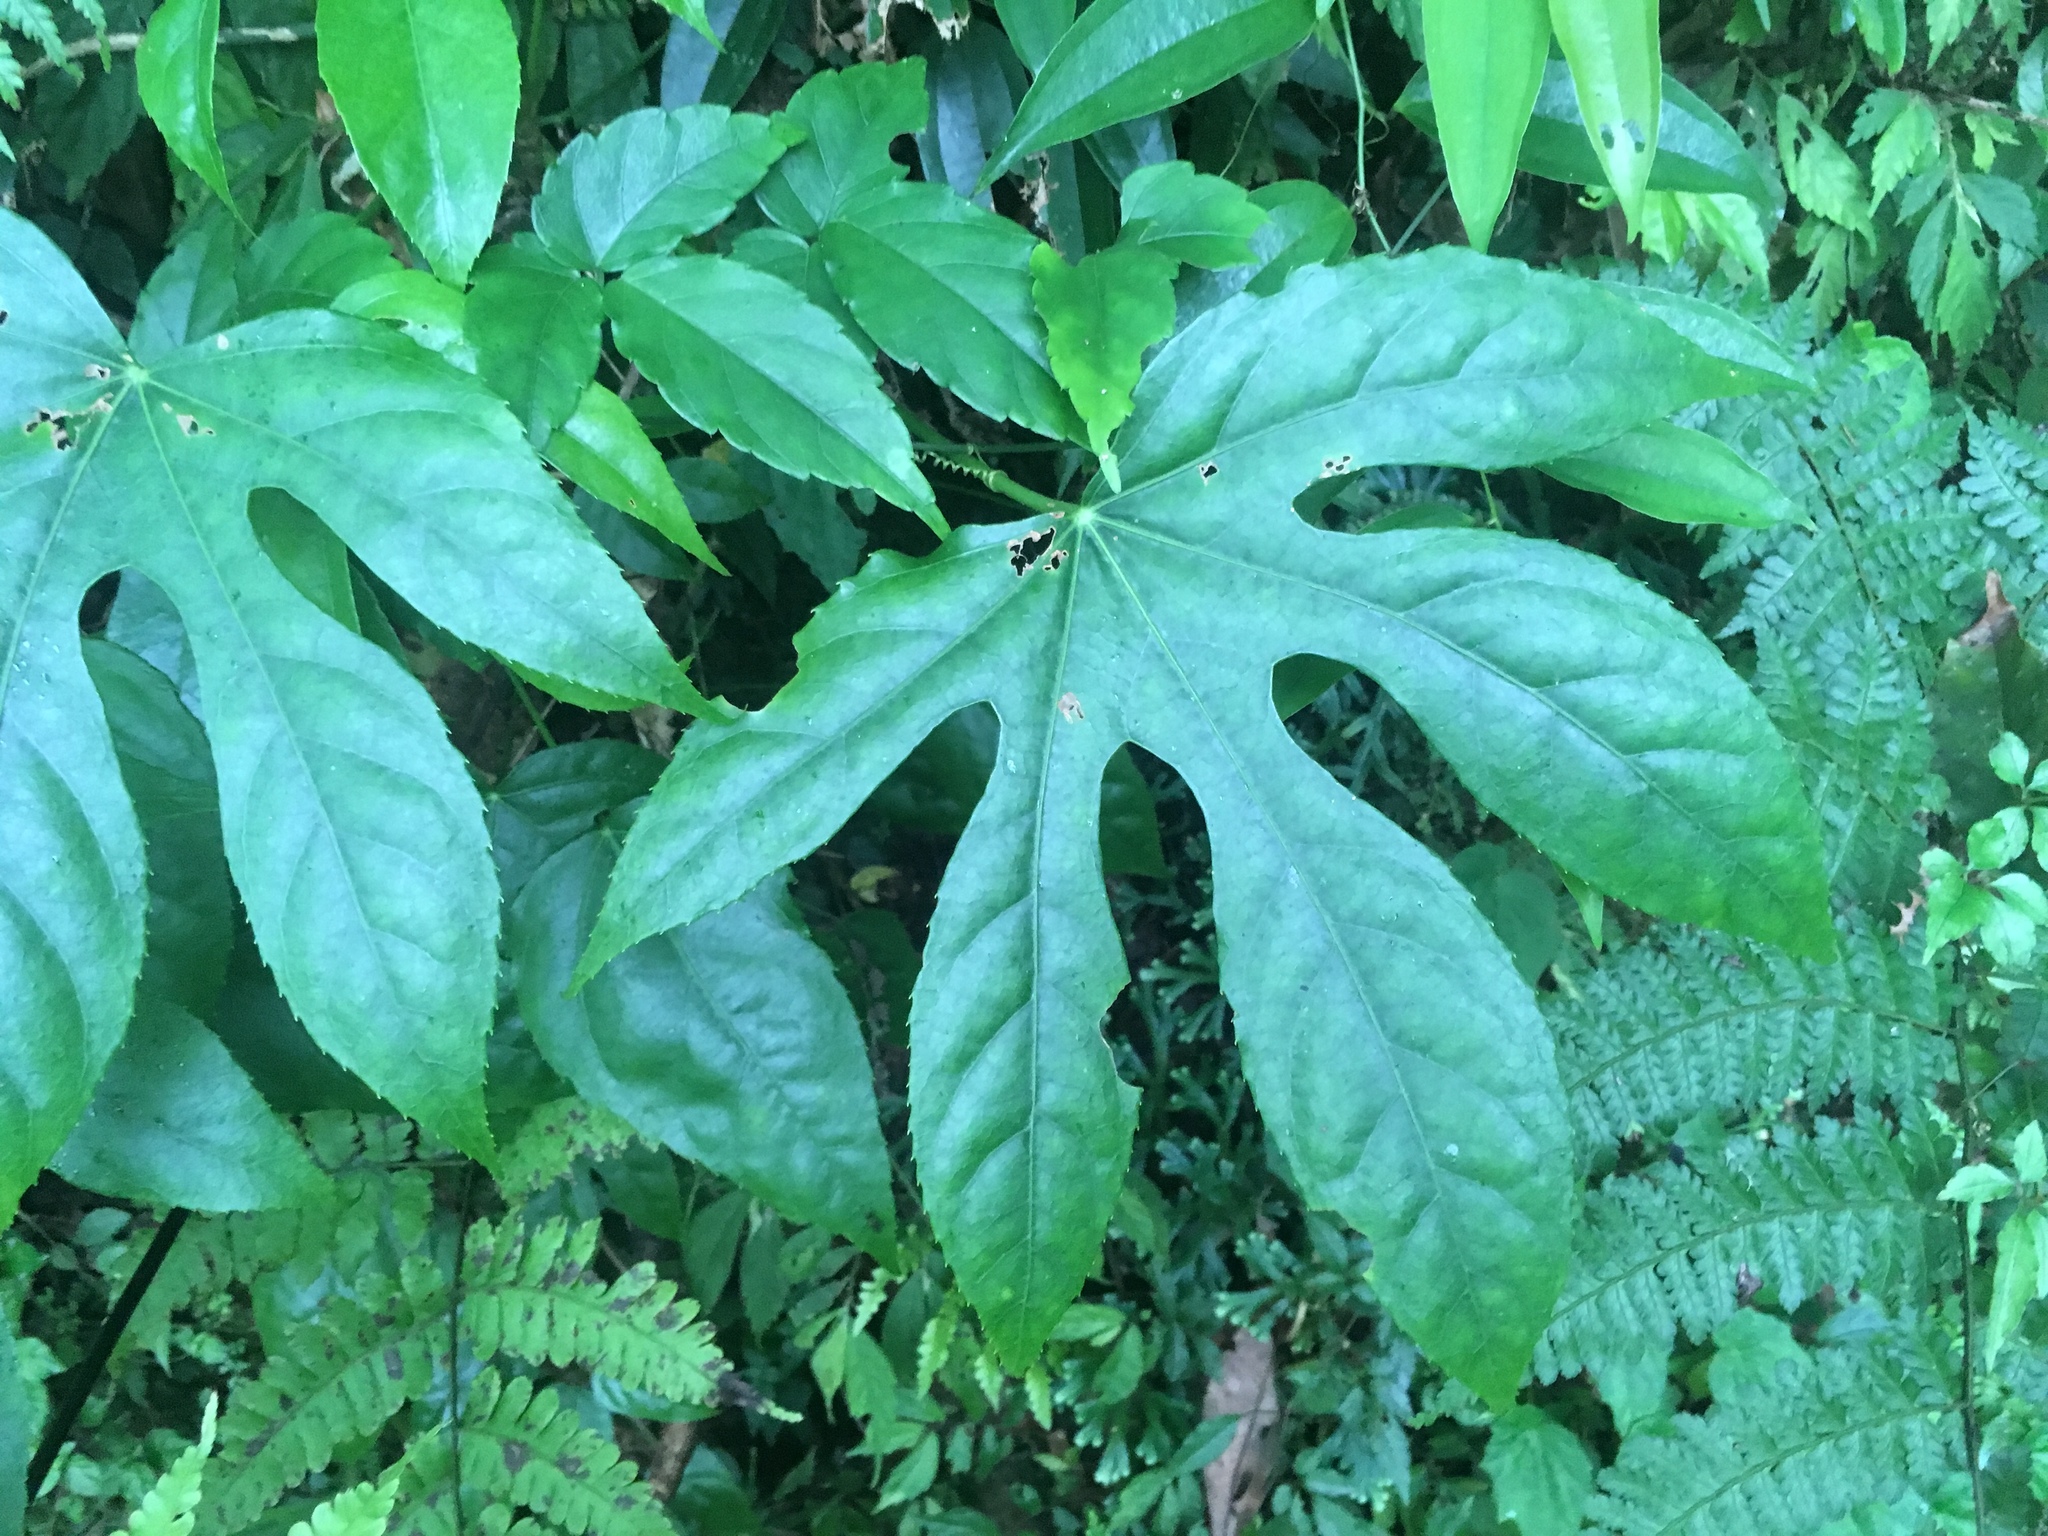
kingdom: Plantae
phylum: Tracheophyta
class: Magnoliopsida
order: Apiales
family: Araliaceae
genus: Fatsia
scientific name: Fatsia polycarpa
